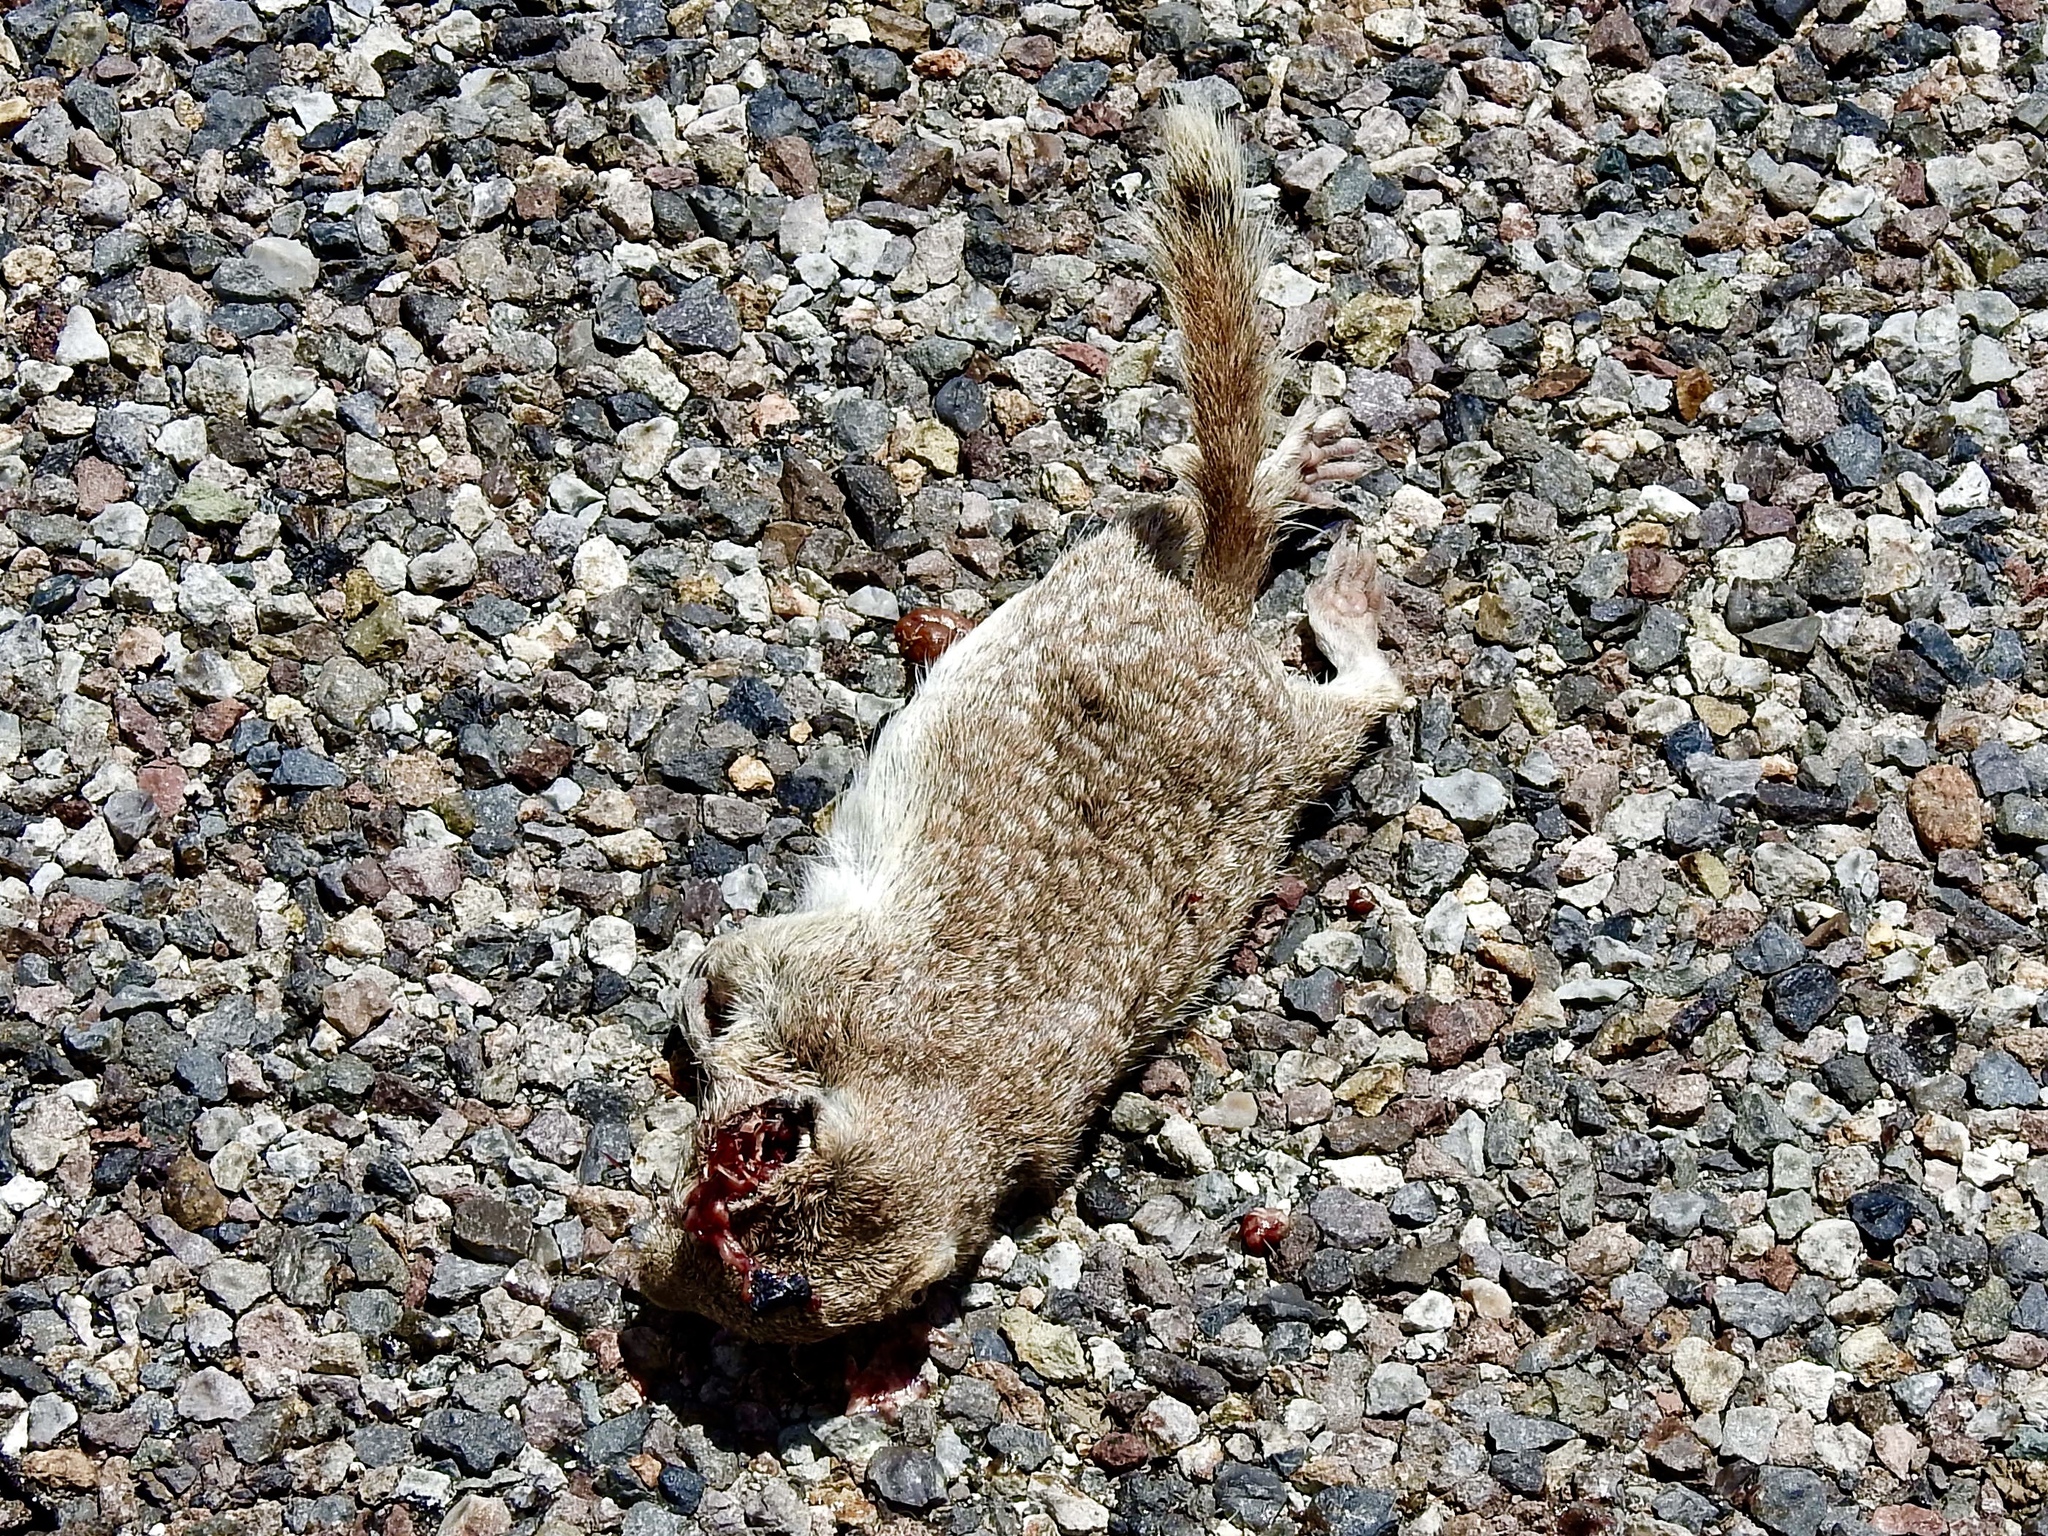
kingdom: Animalia
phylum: Chordata
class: Mammalia
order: Rodentia
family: Sciuridae
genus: Xerospermophilus
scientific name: Xerospermophilus spilosoma
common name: Spotted ground squirrel
